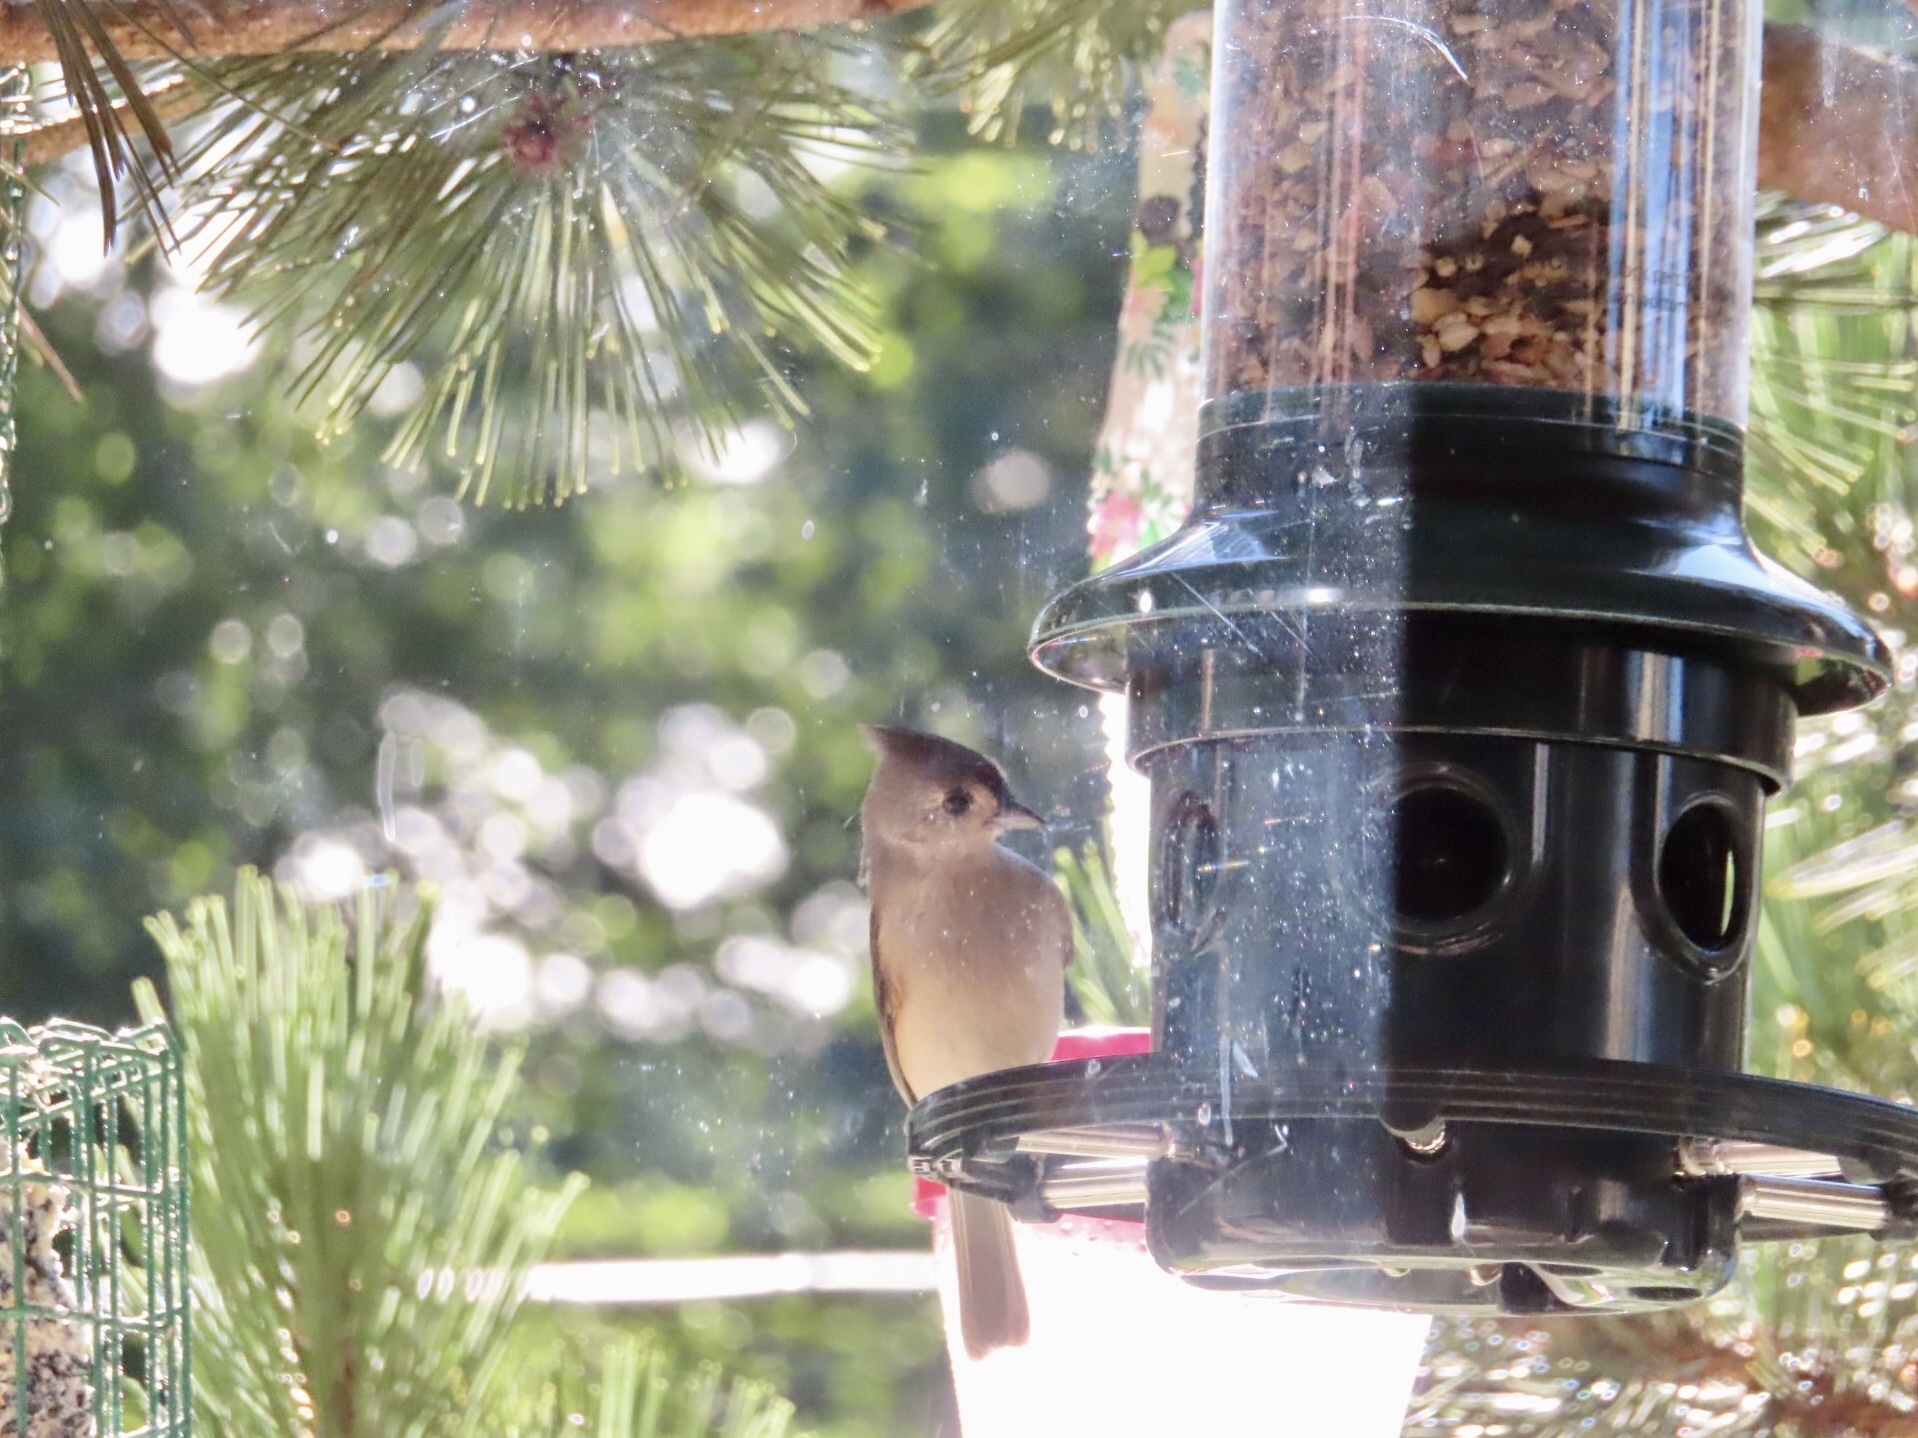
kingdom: Animalia
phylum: Chordata
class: Aves
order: Passeriformes
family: Paridae
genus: Baeolophus
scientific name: Baeolophus bicolor
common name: Tufted titmouse
